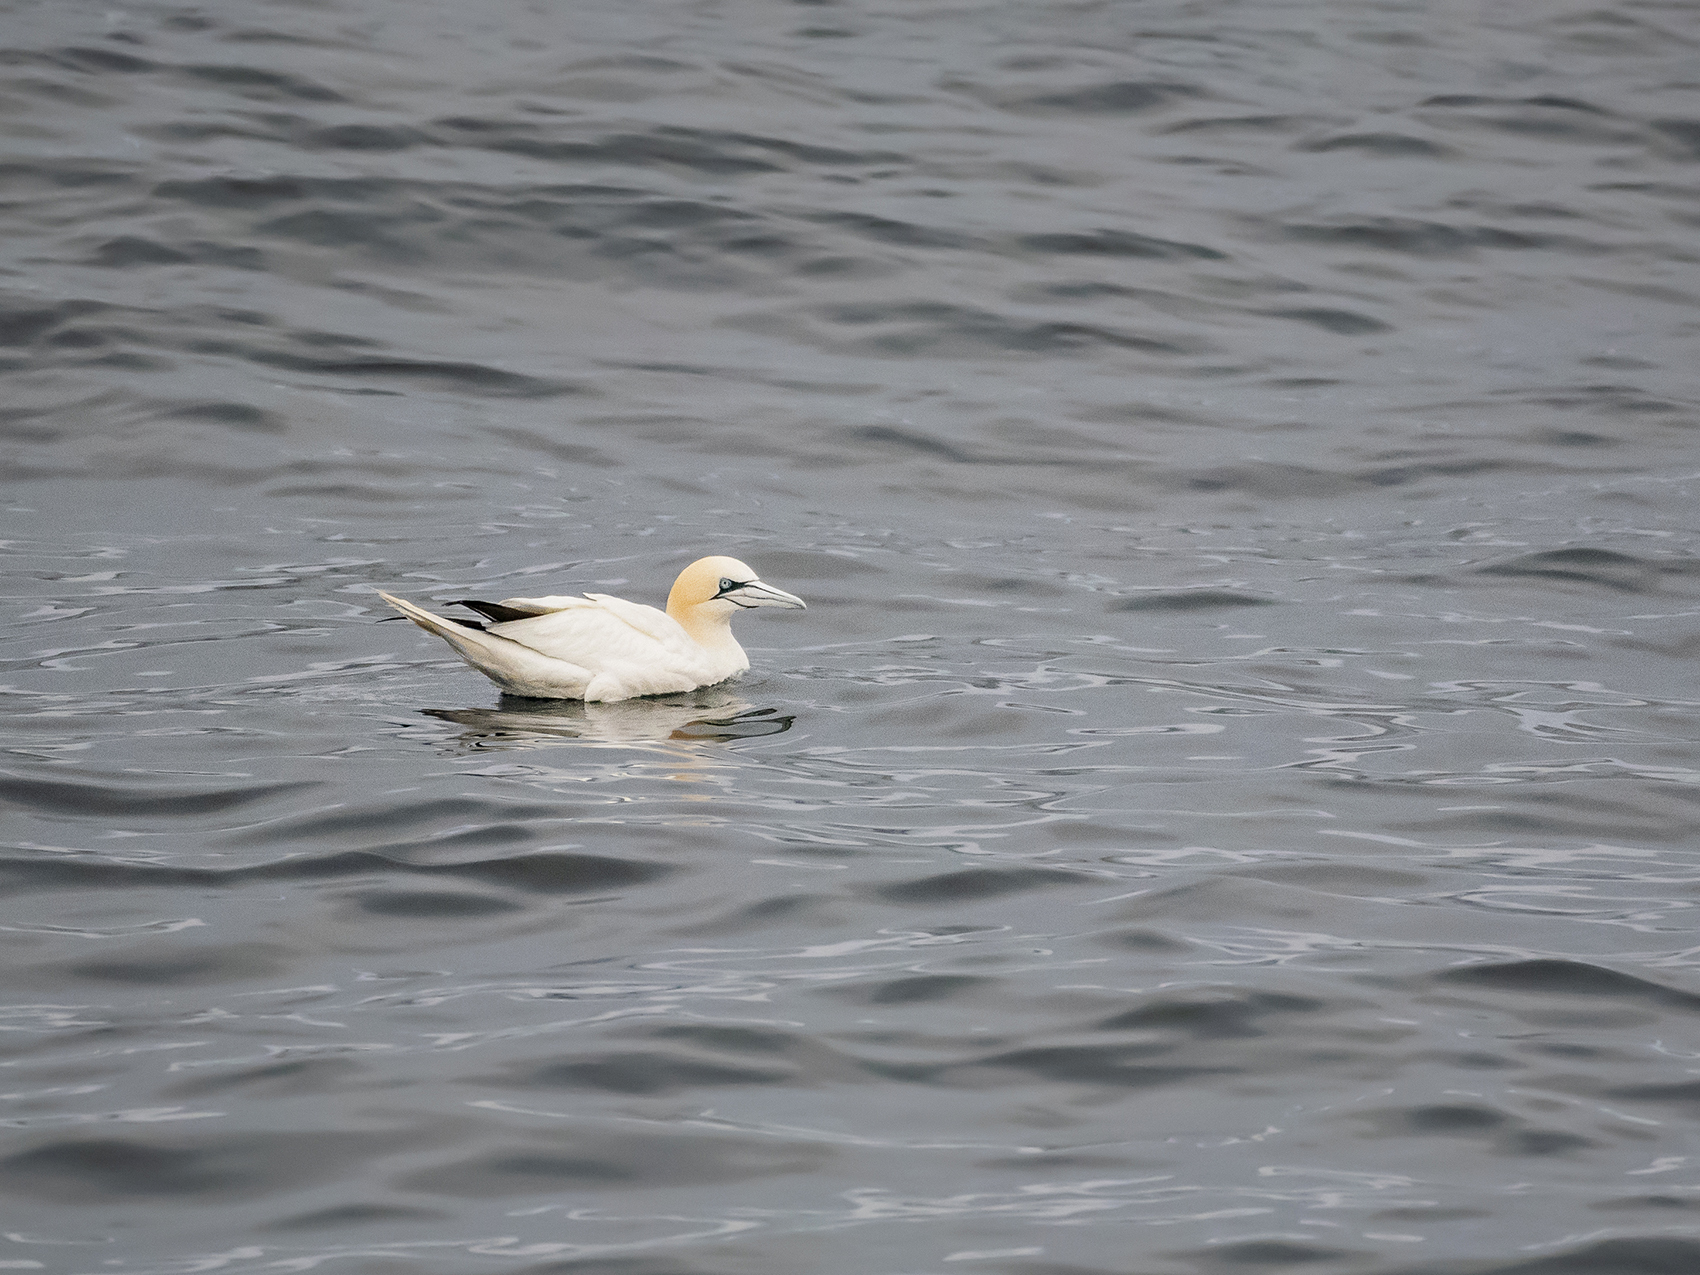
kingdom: Animalia
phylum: Chordata
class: Aves
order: Suliformes
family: Sulidae
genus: Morus
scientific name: Morus bassanus
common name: Northern gannet
